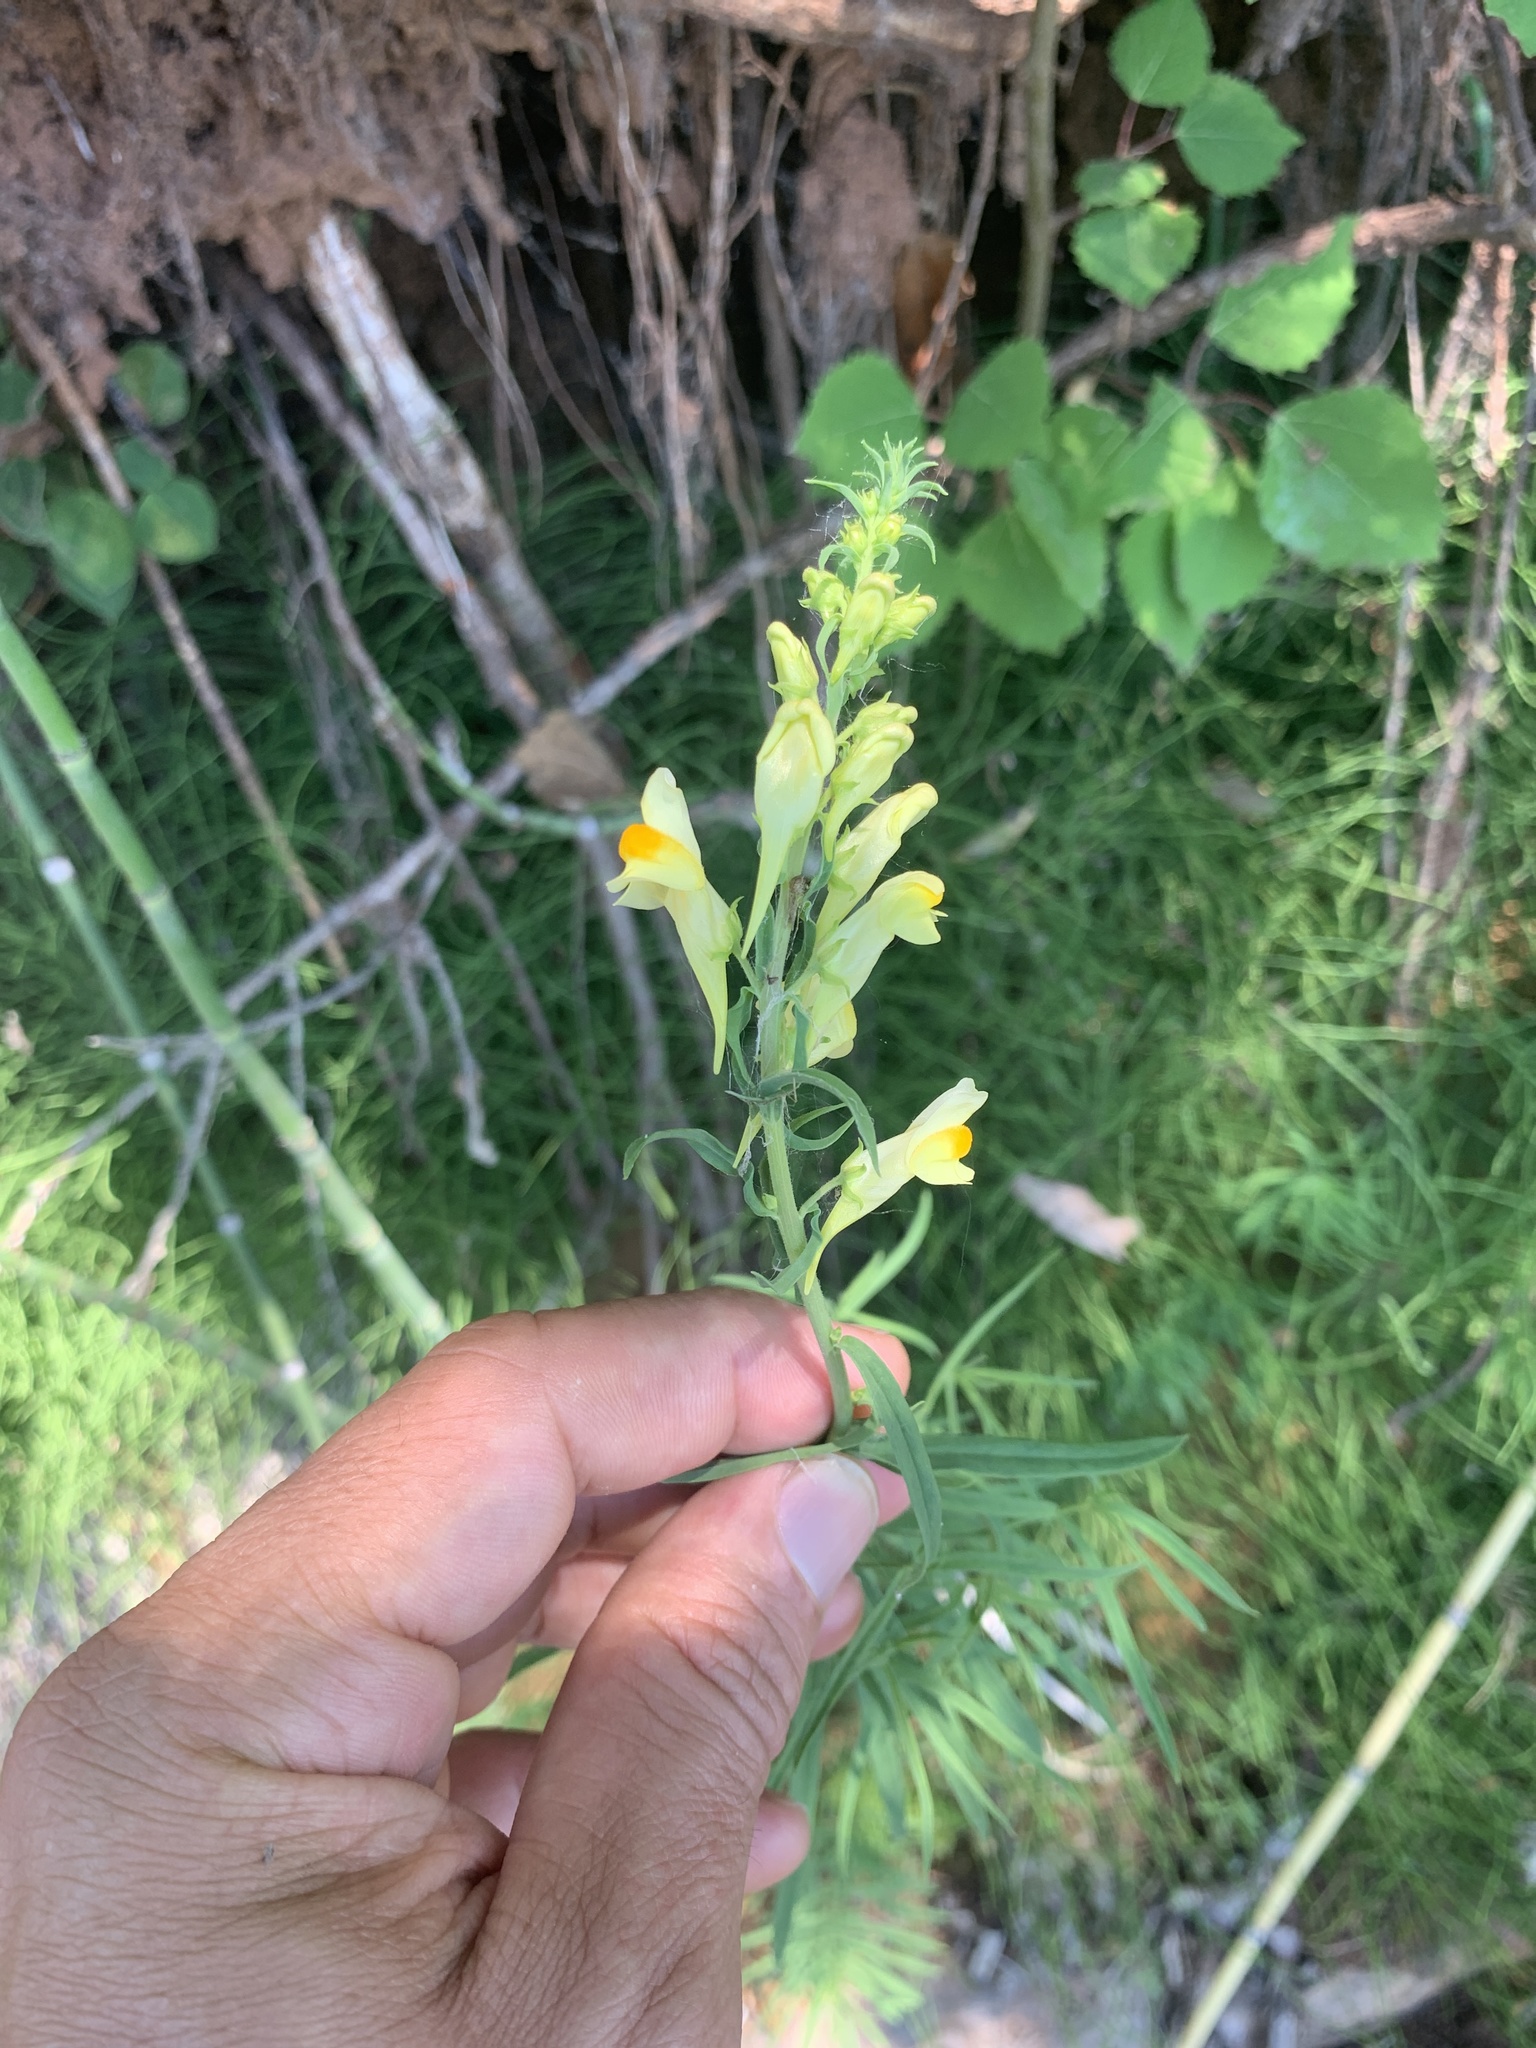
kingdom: Plantae
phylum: Tracheophyta
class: Magnoliopsida
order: Lamiales
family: Plantaginaceae
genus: Linaria
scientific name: Linaria vulgaris
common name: Butter and eggs
